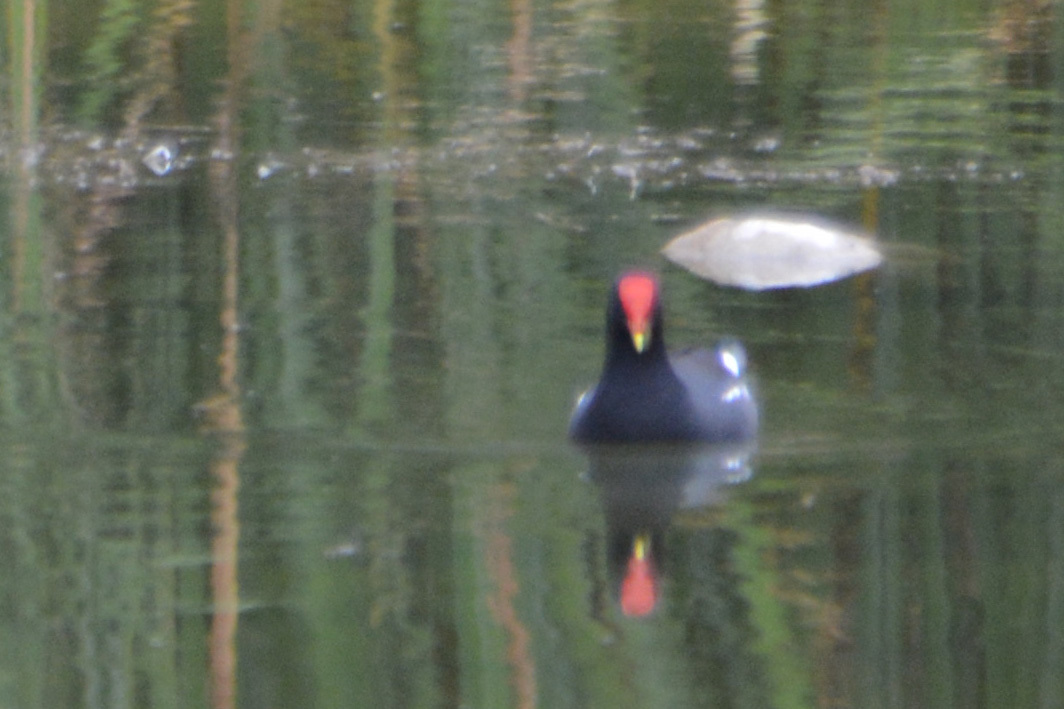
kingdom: Animalia
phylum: Chordata
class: Aves
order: Gruiformes
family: Rallidae
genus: Gallinula
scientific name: Gallinula chloropus
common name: Common moorhen
